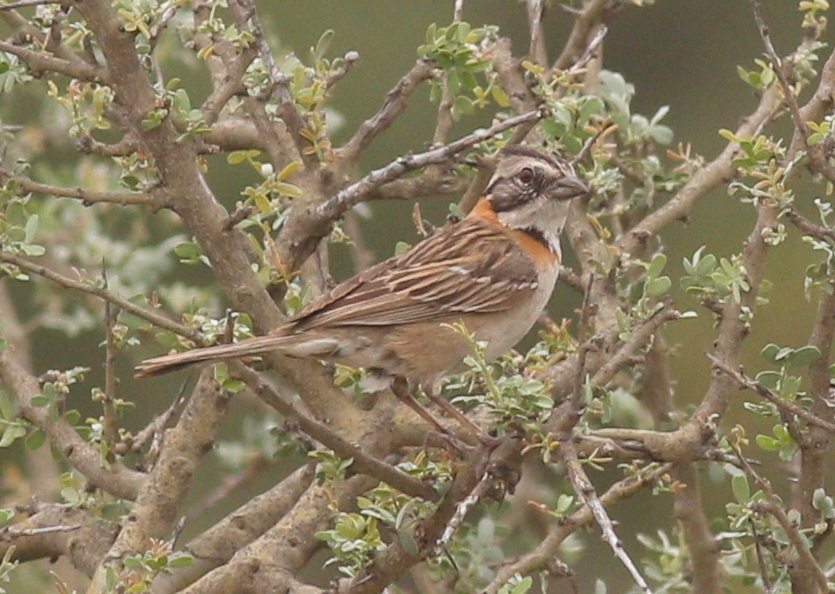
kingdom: Animalia
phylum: Chordata
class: Aves
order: Passeriformes
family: Passerellidae
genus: Zonotrichia
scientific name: Zonotrichia capensis
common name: Rufous-collared sparrow
